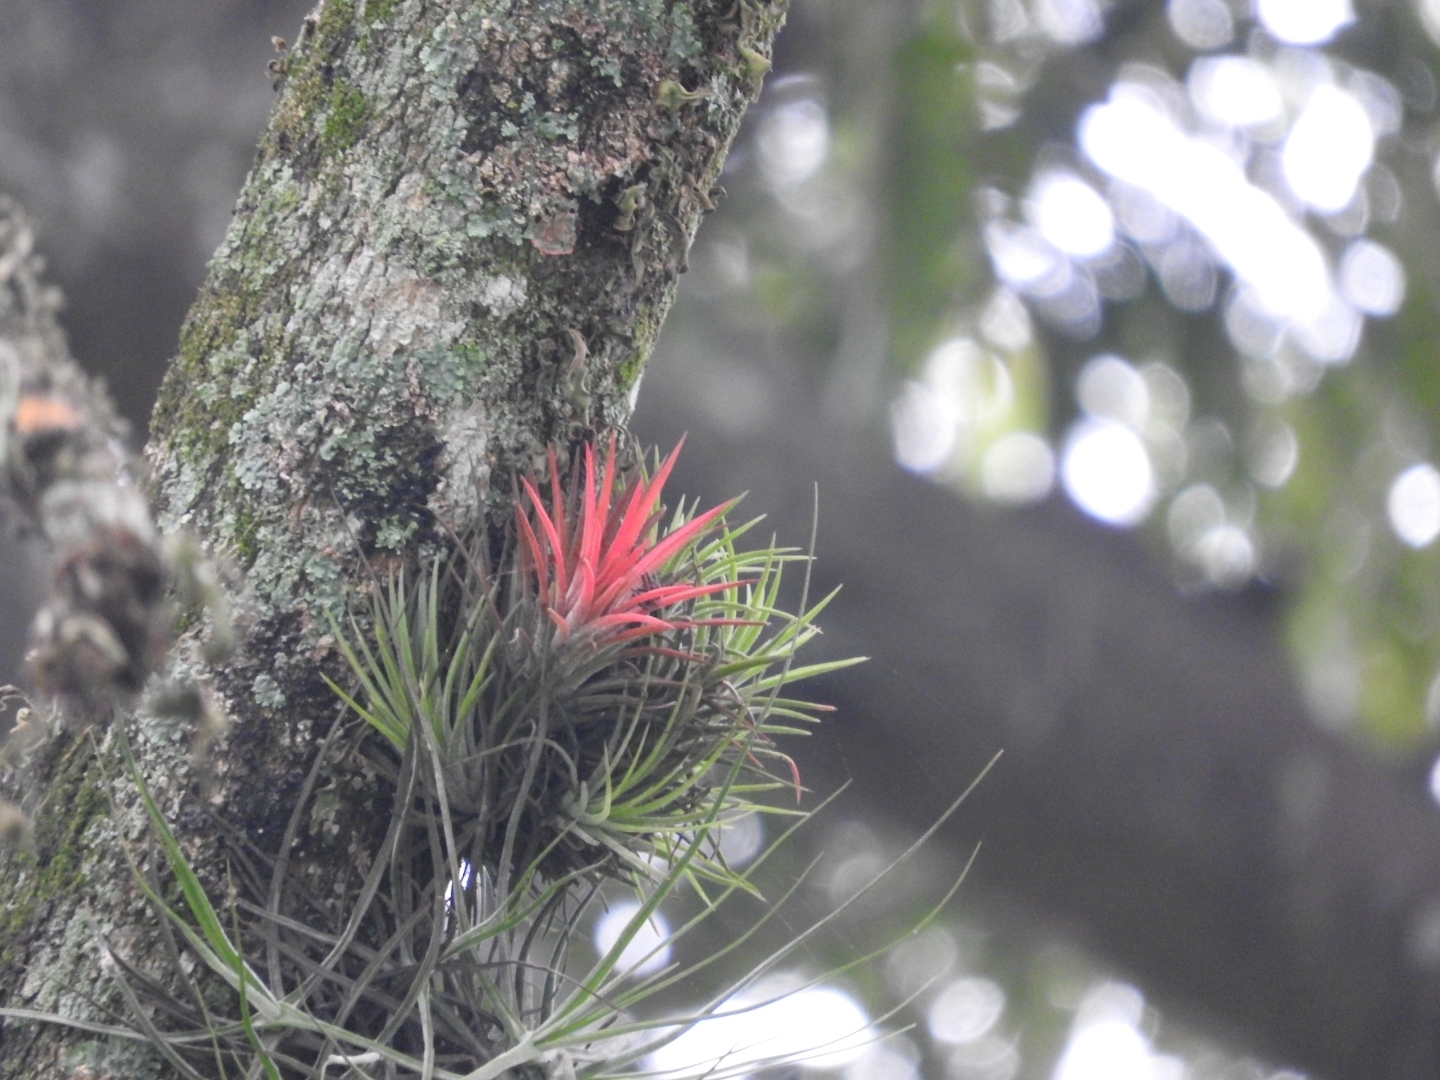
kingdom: Plantae
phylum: Tracheophyta
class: Liliopsida
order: Poales
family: Bromeliaceae
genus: Tillandsia
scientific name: Tillandsia ionantha
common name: Sky plant
